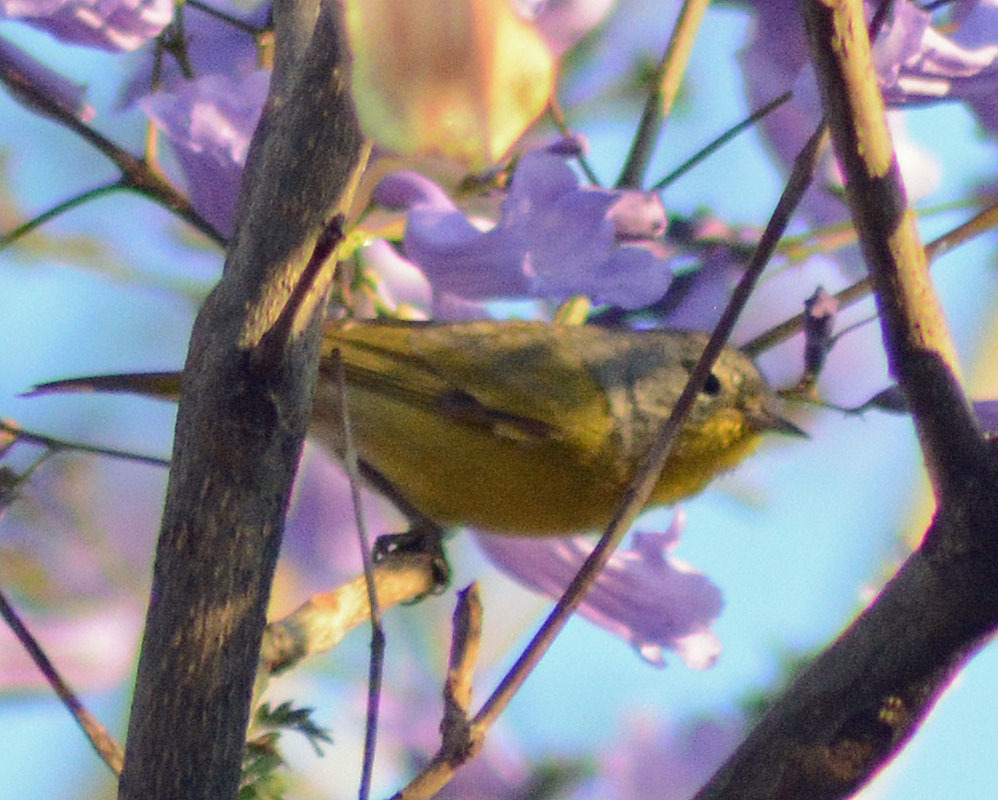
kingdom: Animalia
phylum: Chordata
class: Aves
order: Passeriformes
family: Parulidae
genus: Leiothlypis
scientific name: Leiothlypis ruficapilla
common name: Nashville warbler
